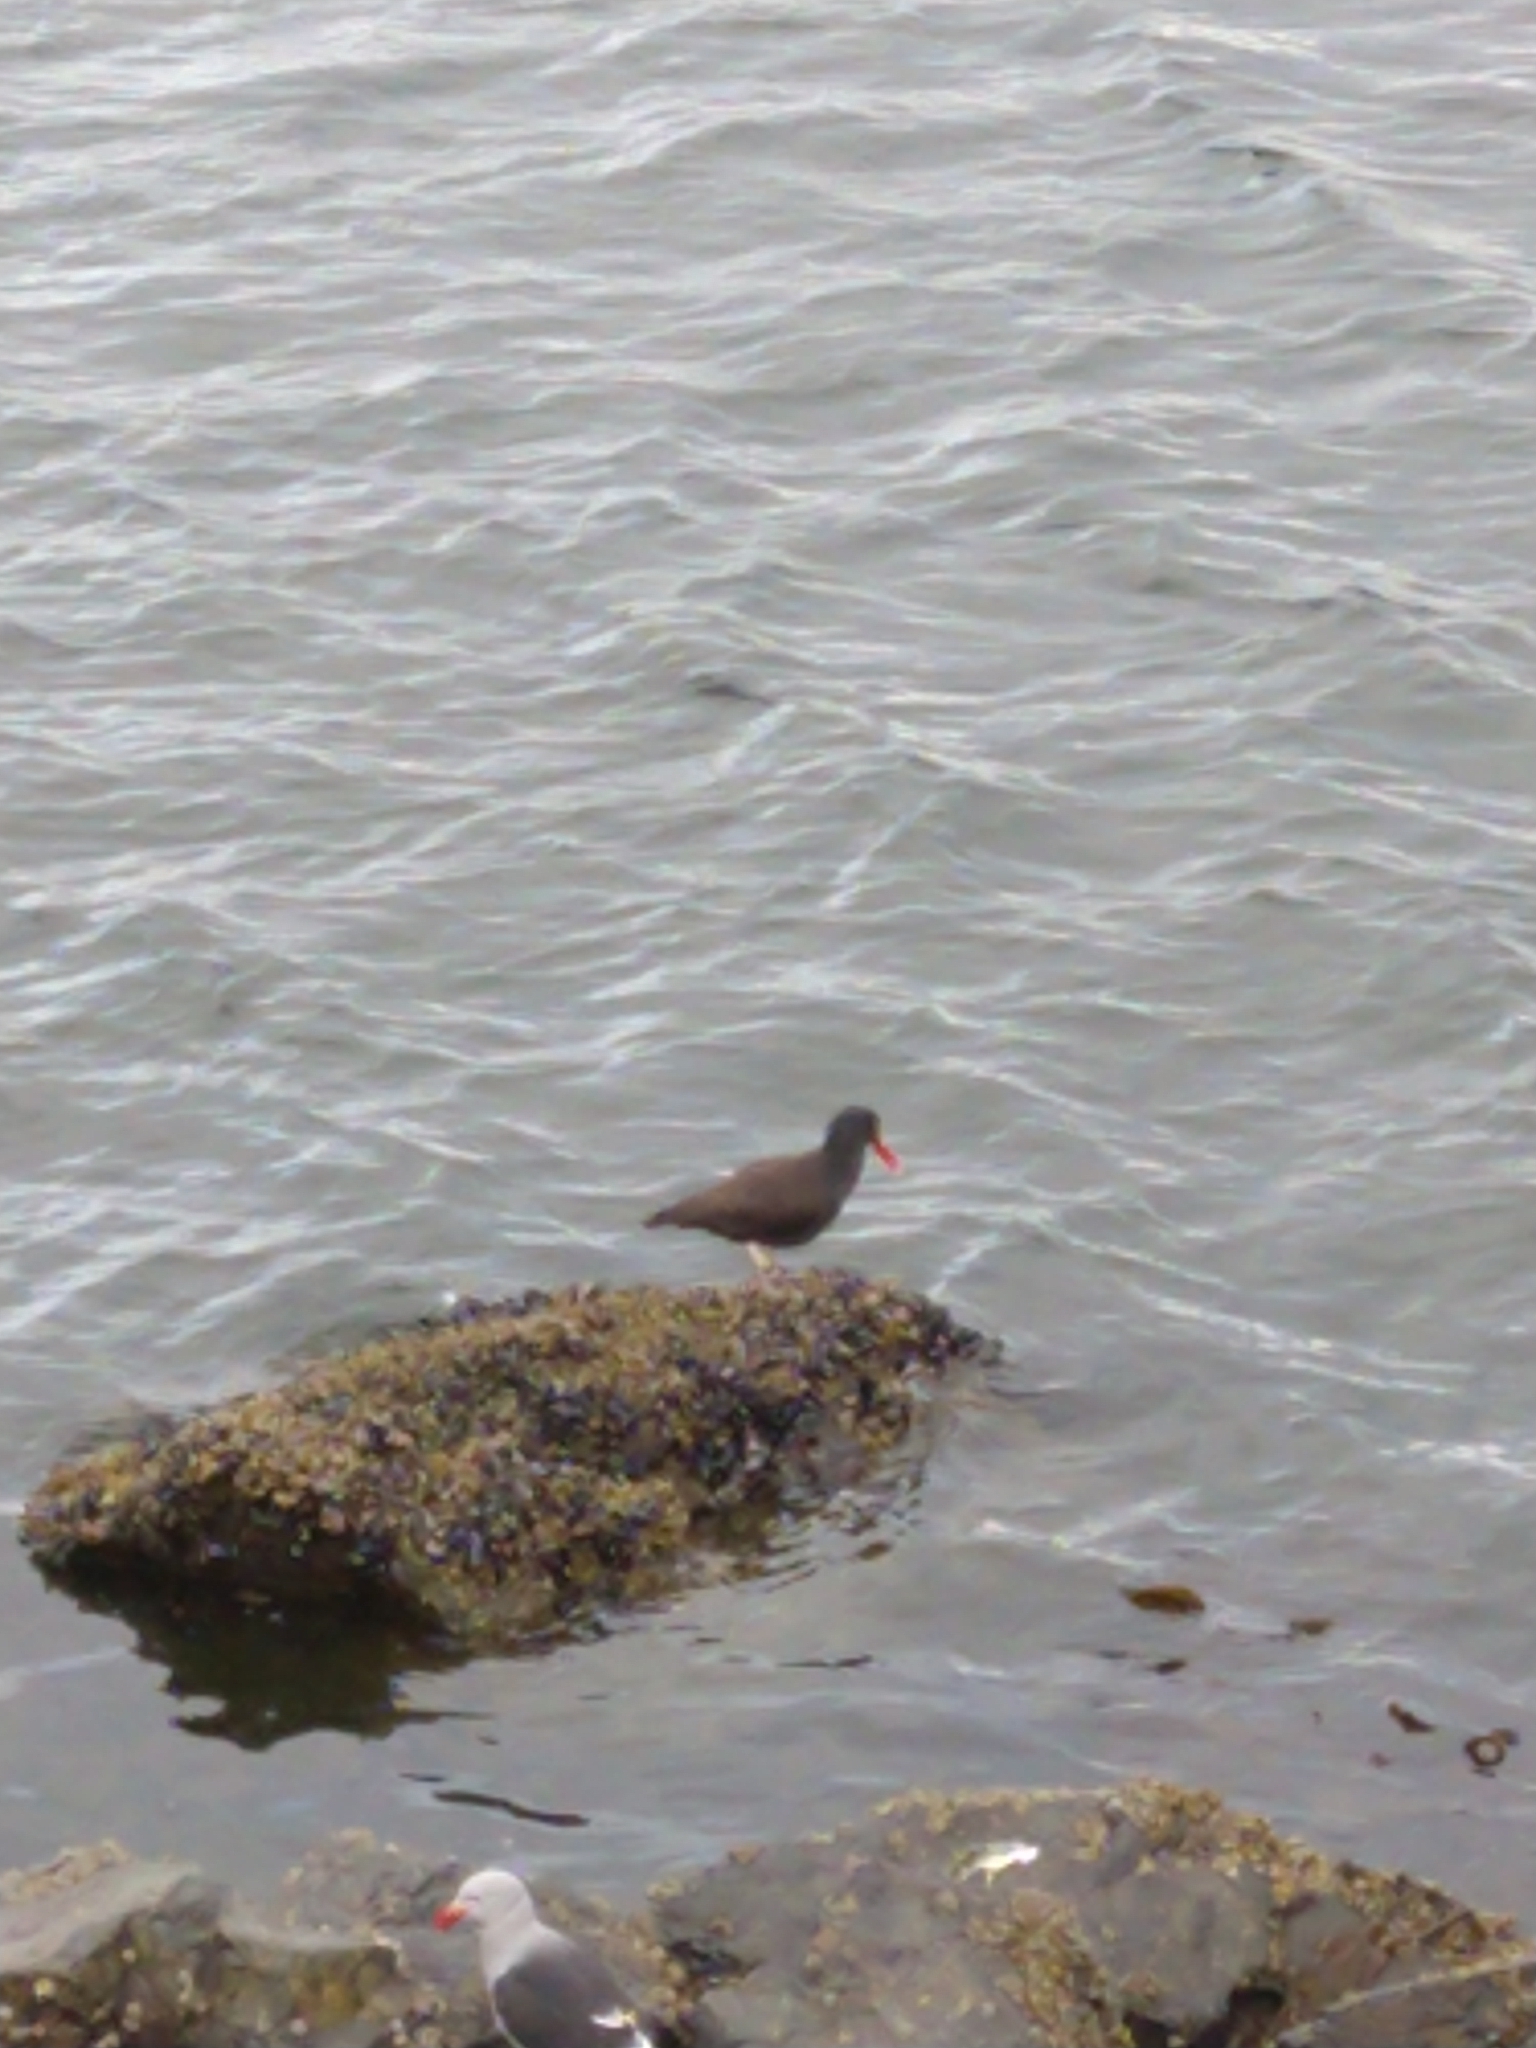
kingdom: Animalia
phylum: Chordata
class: Aves
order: Charadriiformes
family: Haematopodidae
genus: Haematopus
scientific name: Haematopus ater
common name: Blackish oystercatcher
